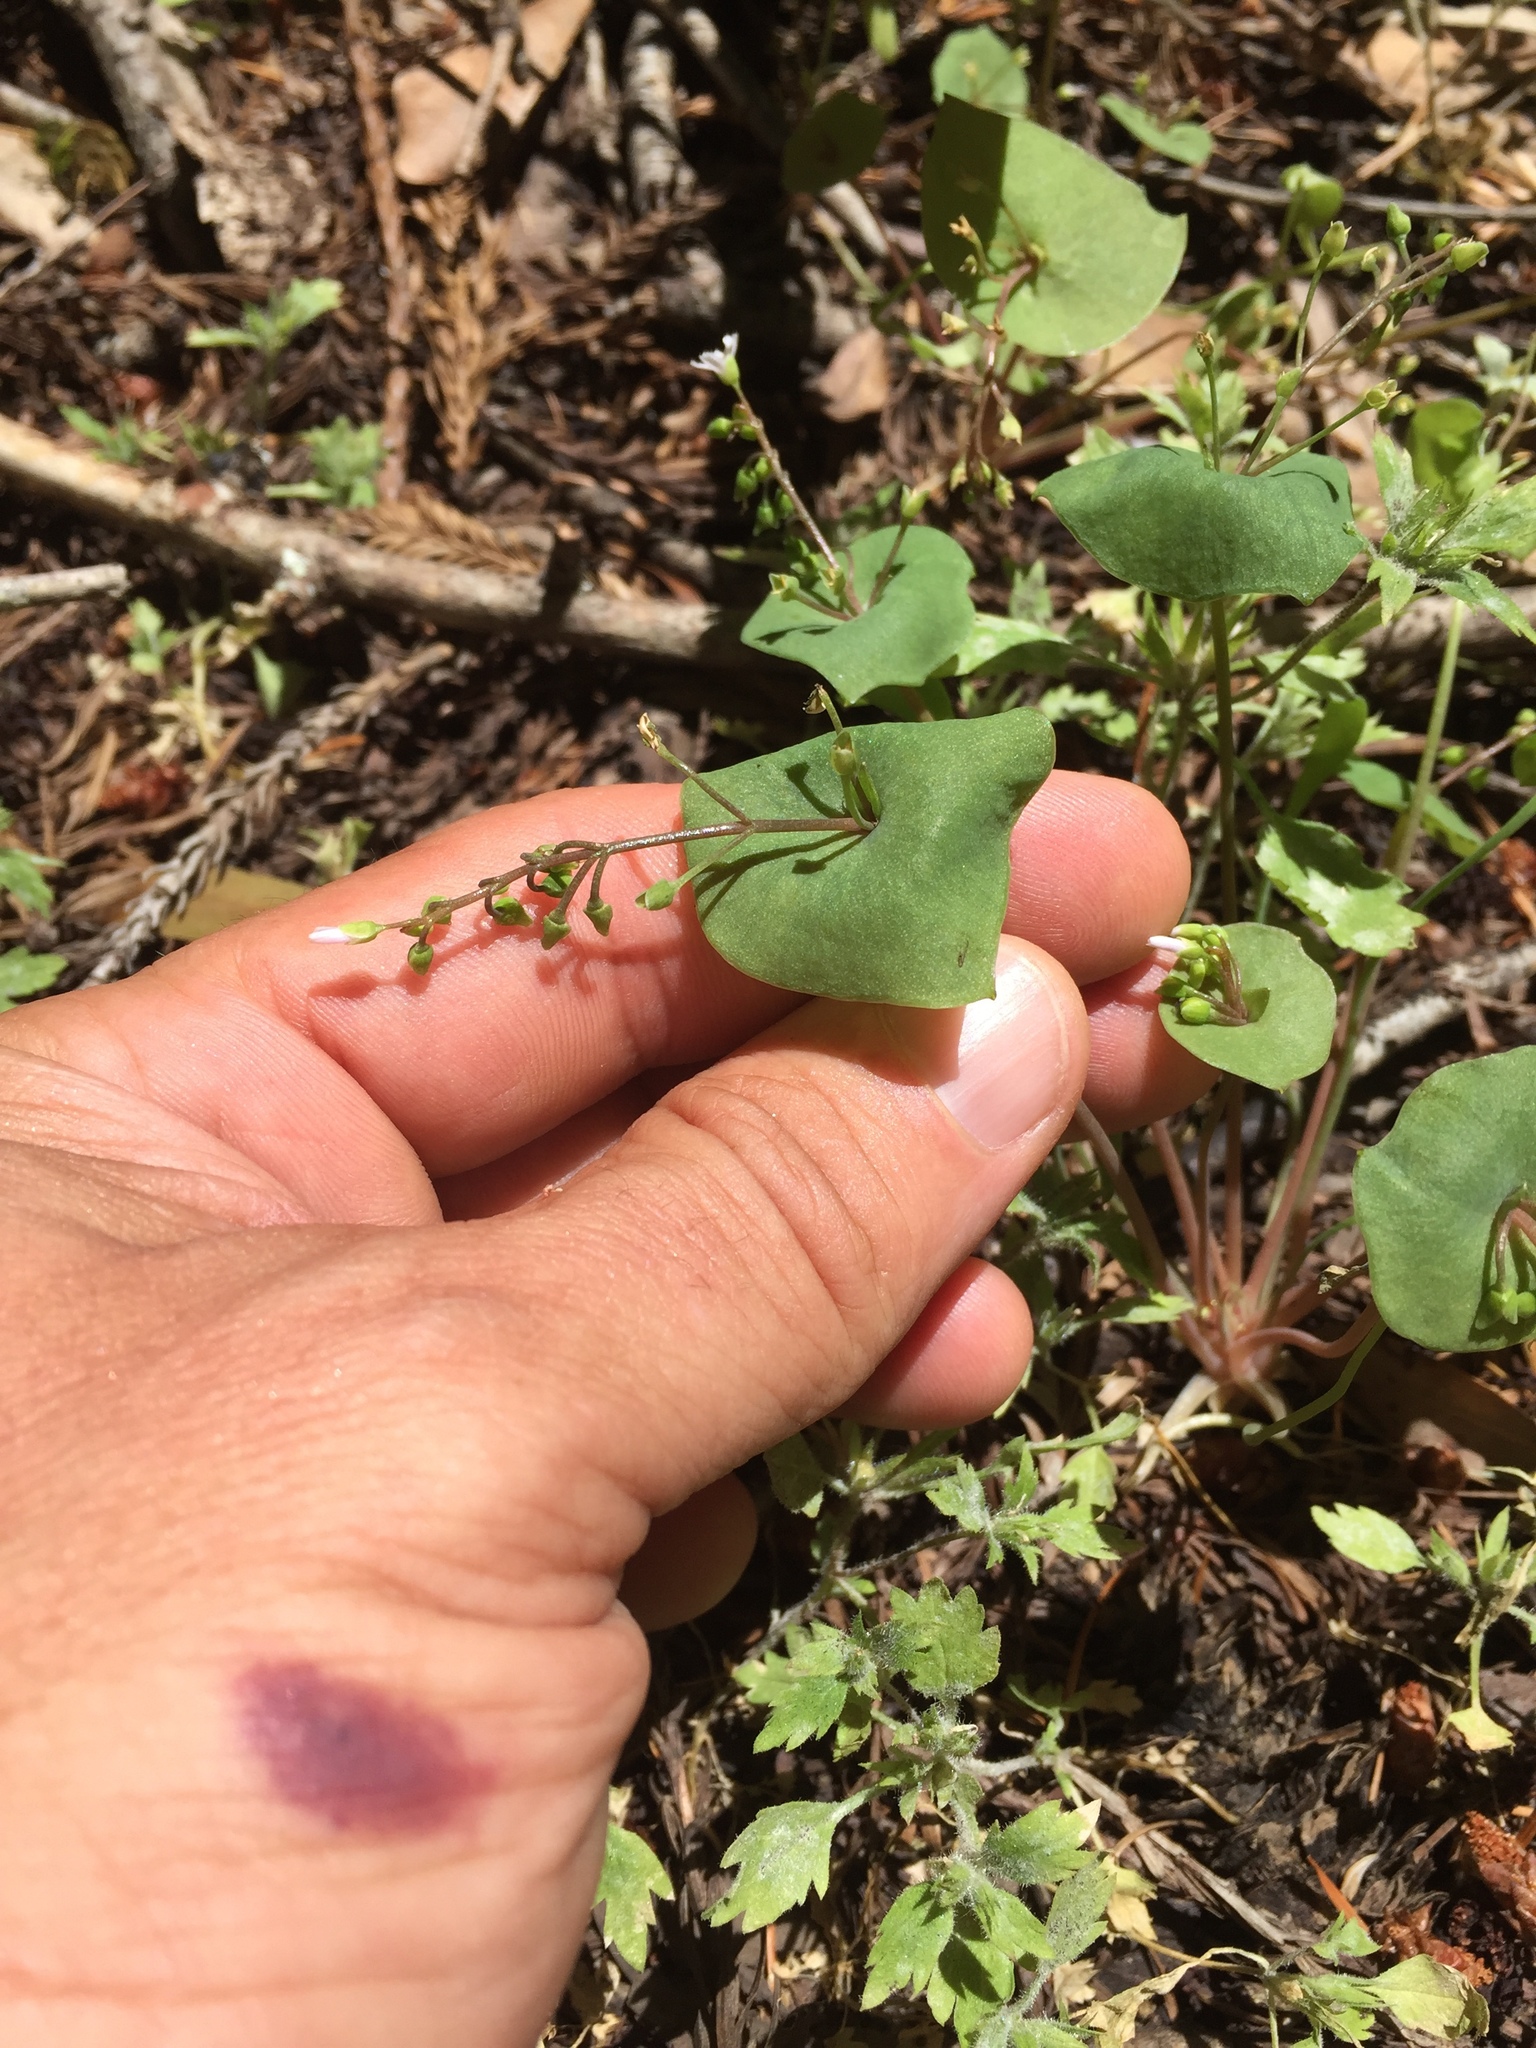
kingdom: Plantae
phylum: Tracheophyta
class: Magnoliopsida
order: Caryophyllales
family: Montiaceae
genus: Claytonia
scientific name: Claytonia perfoliata
